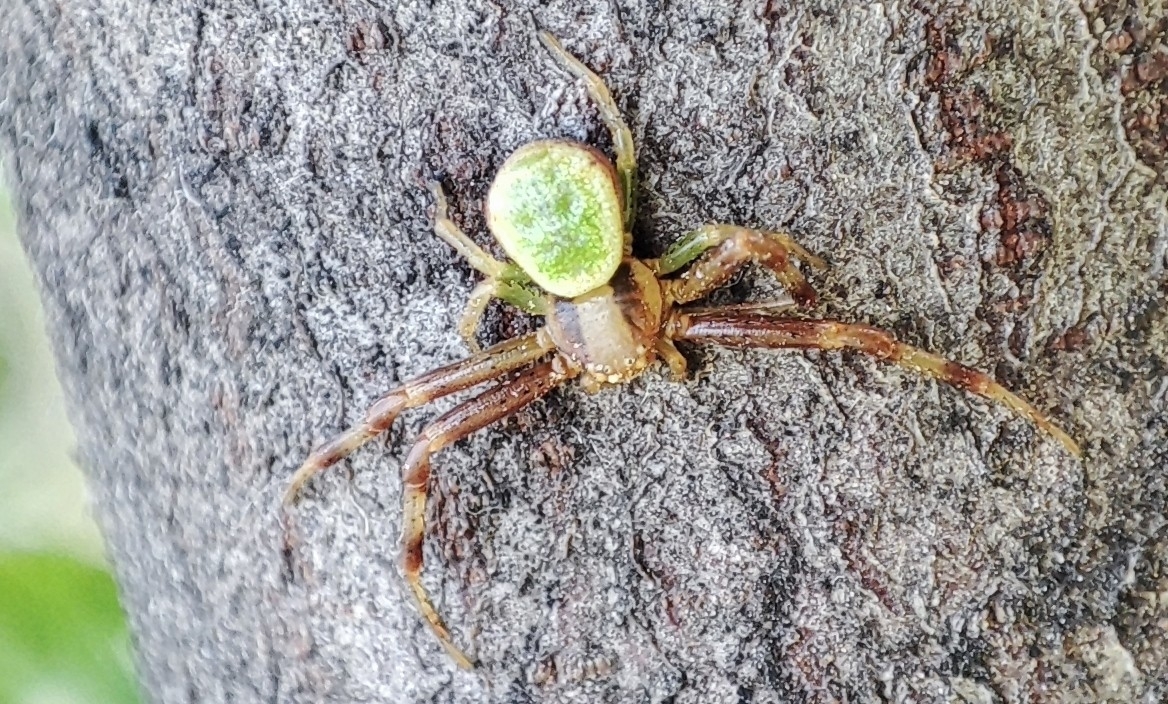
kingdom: Animalia
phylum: Arthropoda
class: Arachnida
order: Araneae
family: Thomisidae
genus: Ebrechtella
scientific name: Ebrechtella tricuspidata
